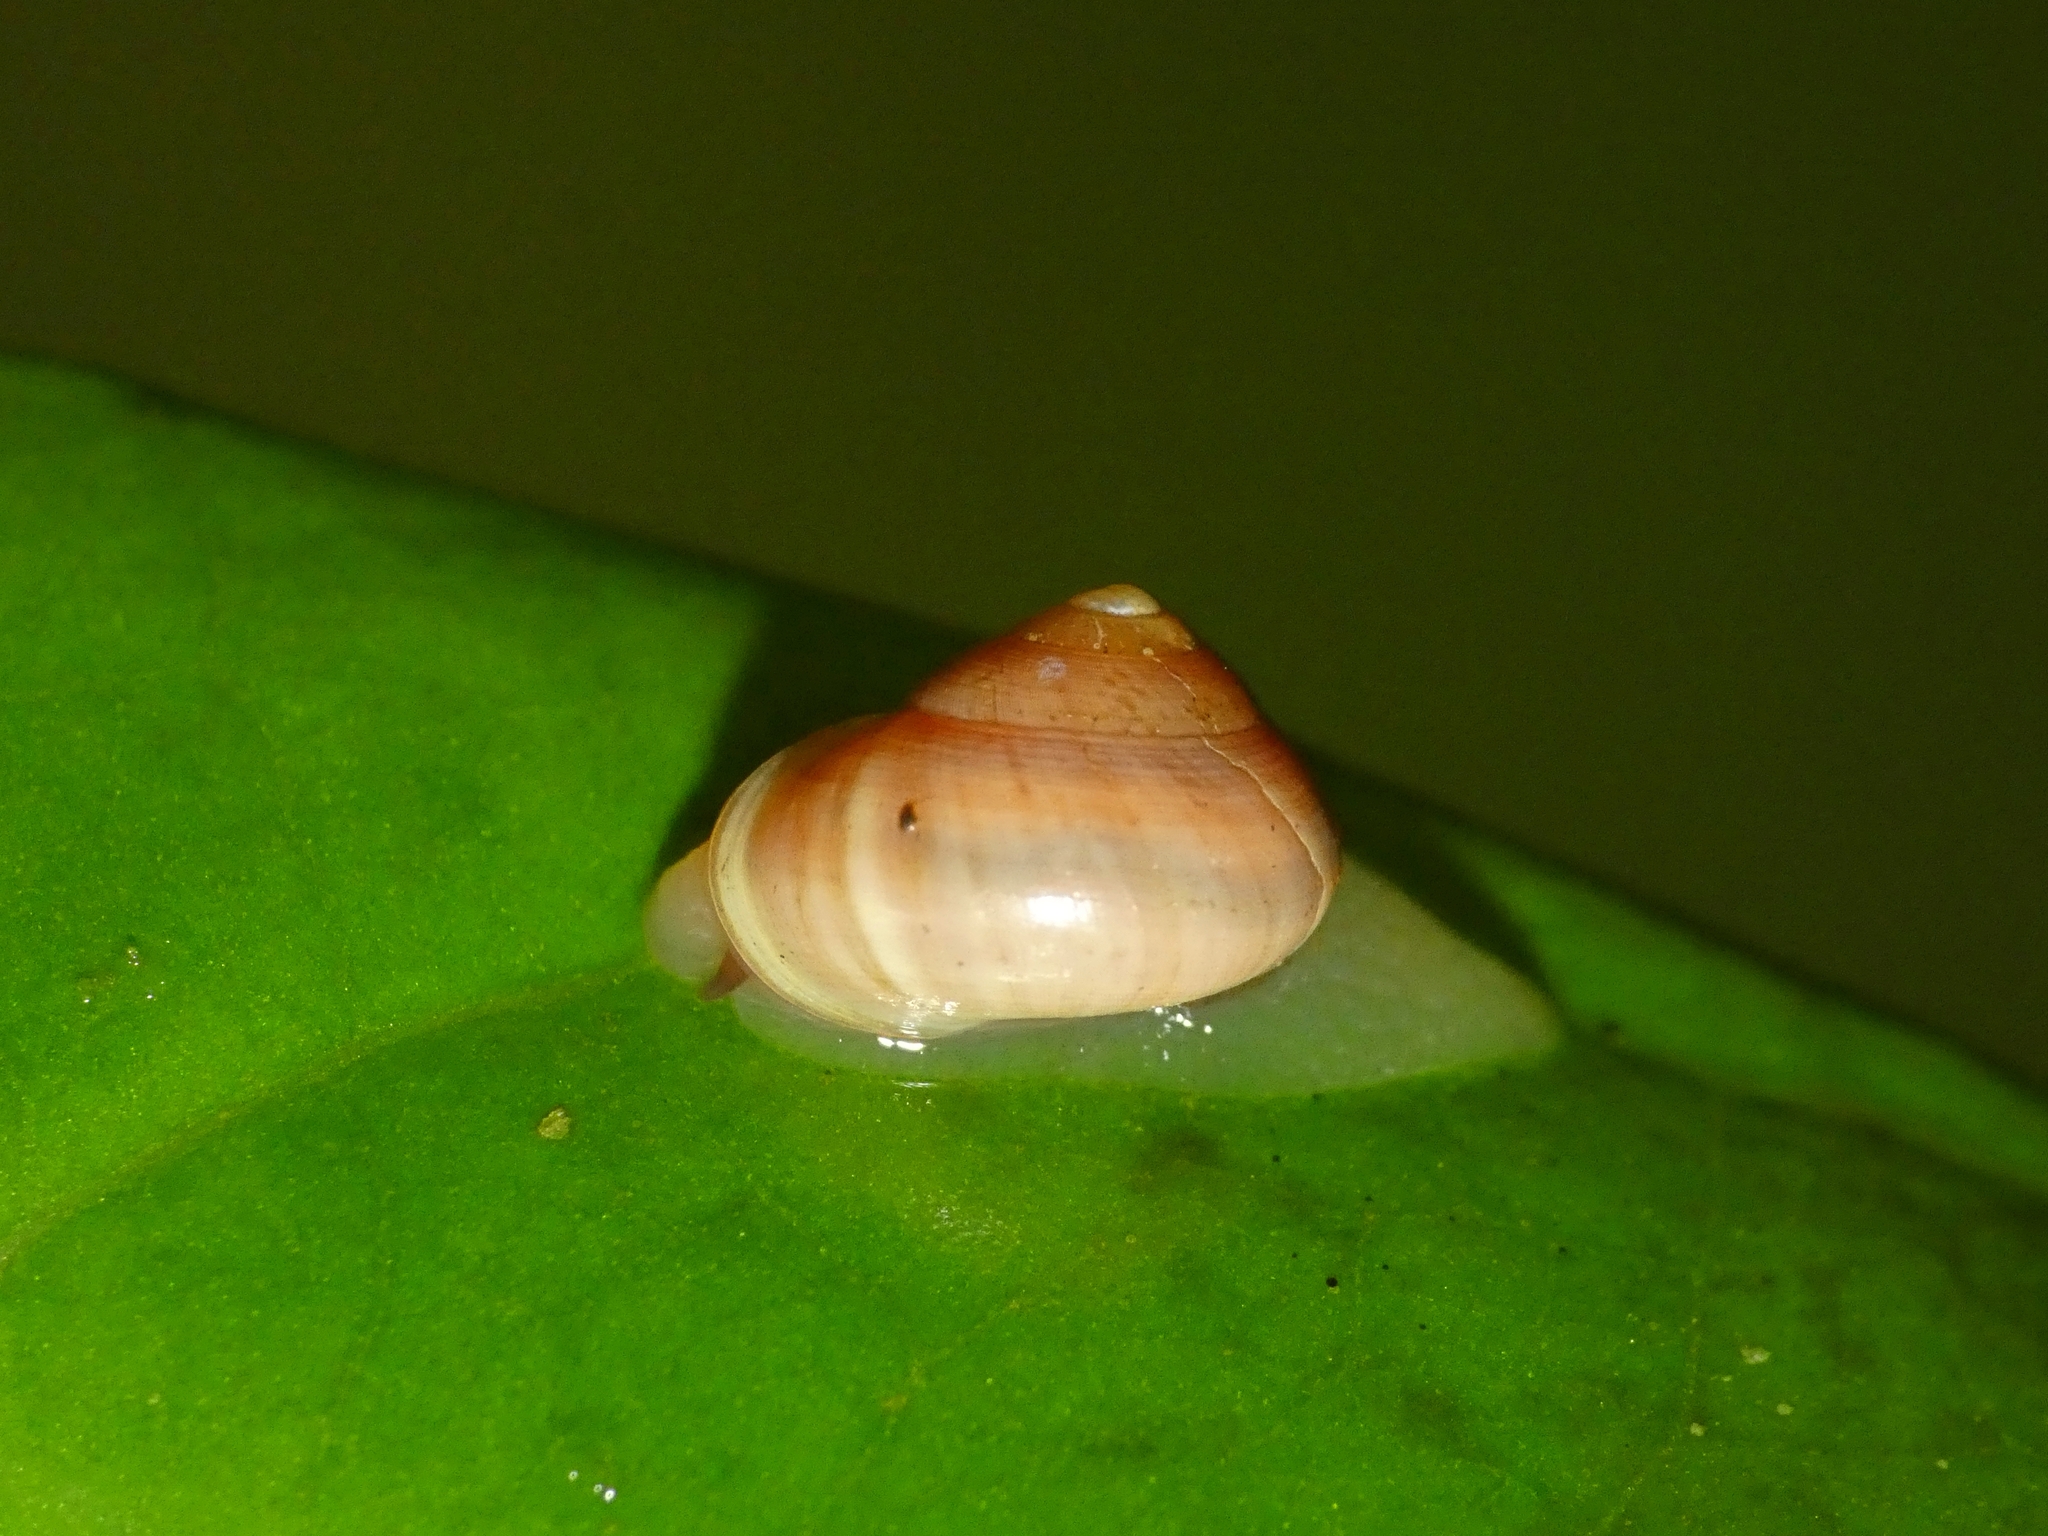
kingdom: Animalia
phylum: Mollusca
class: Gastropoda
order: Cycloneritida
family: Helicinidae
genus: Pleuropoma
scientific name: Pleuropoma gouldiana
